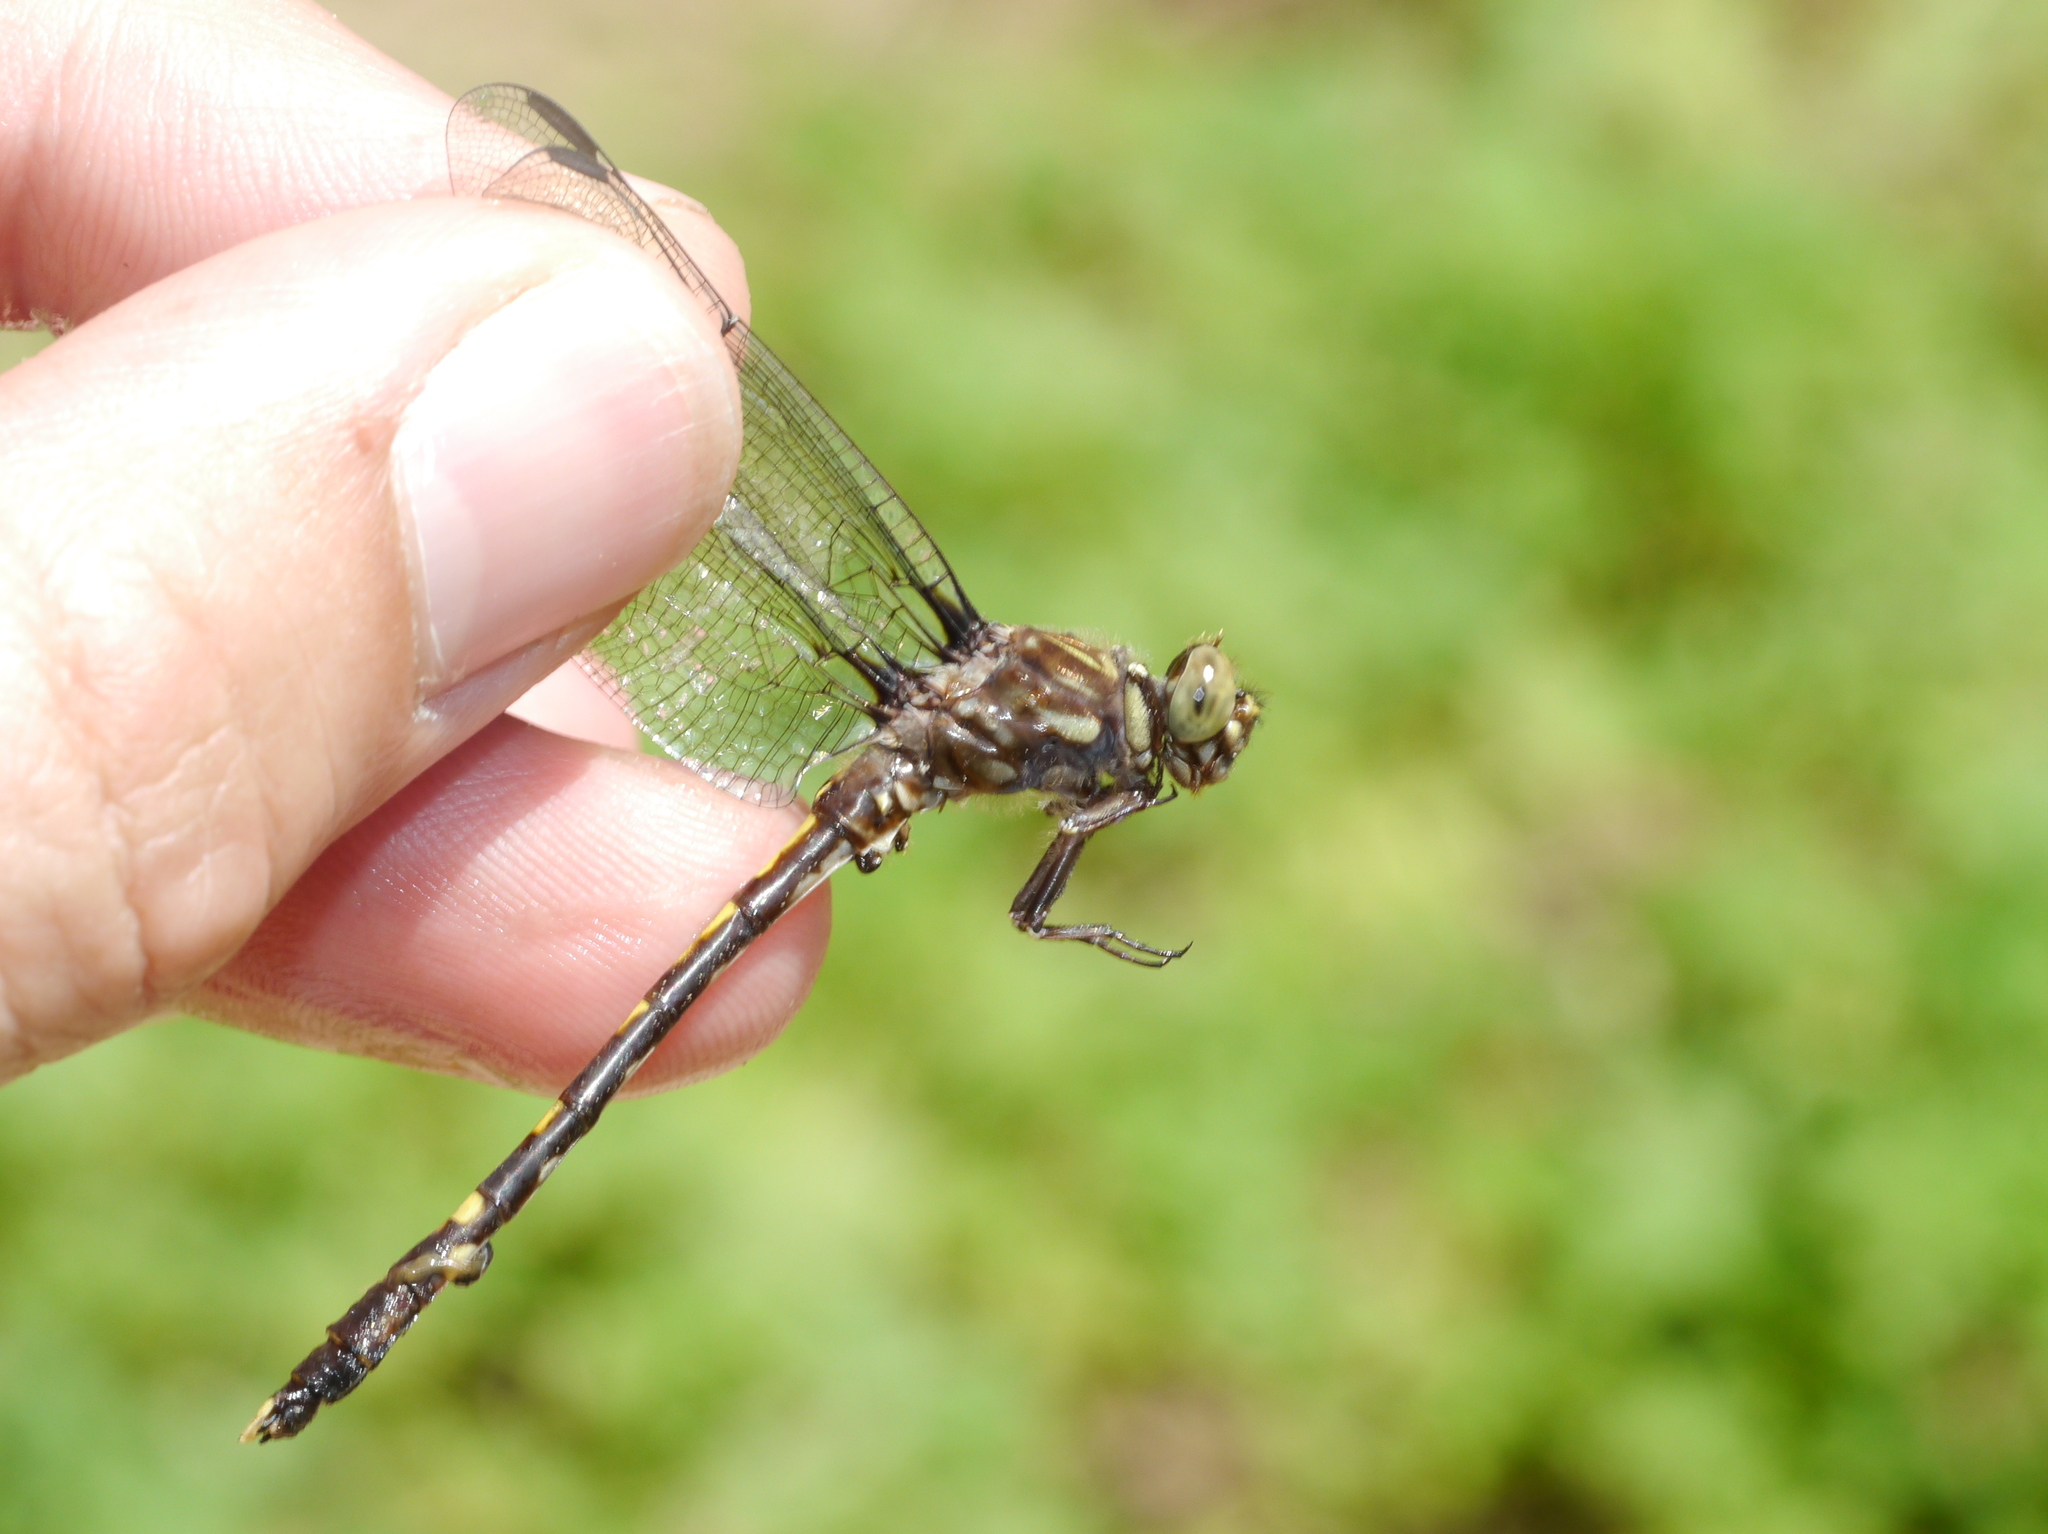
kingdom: Animalia
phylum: Arthropoda
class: Insecta
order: Odonata
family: Gomphidae
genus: Progomphus
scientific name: Progomphus obscurus
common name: Common sanddragon
